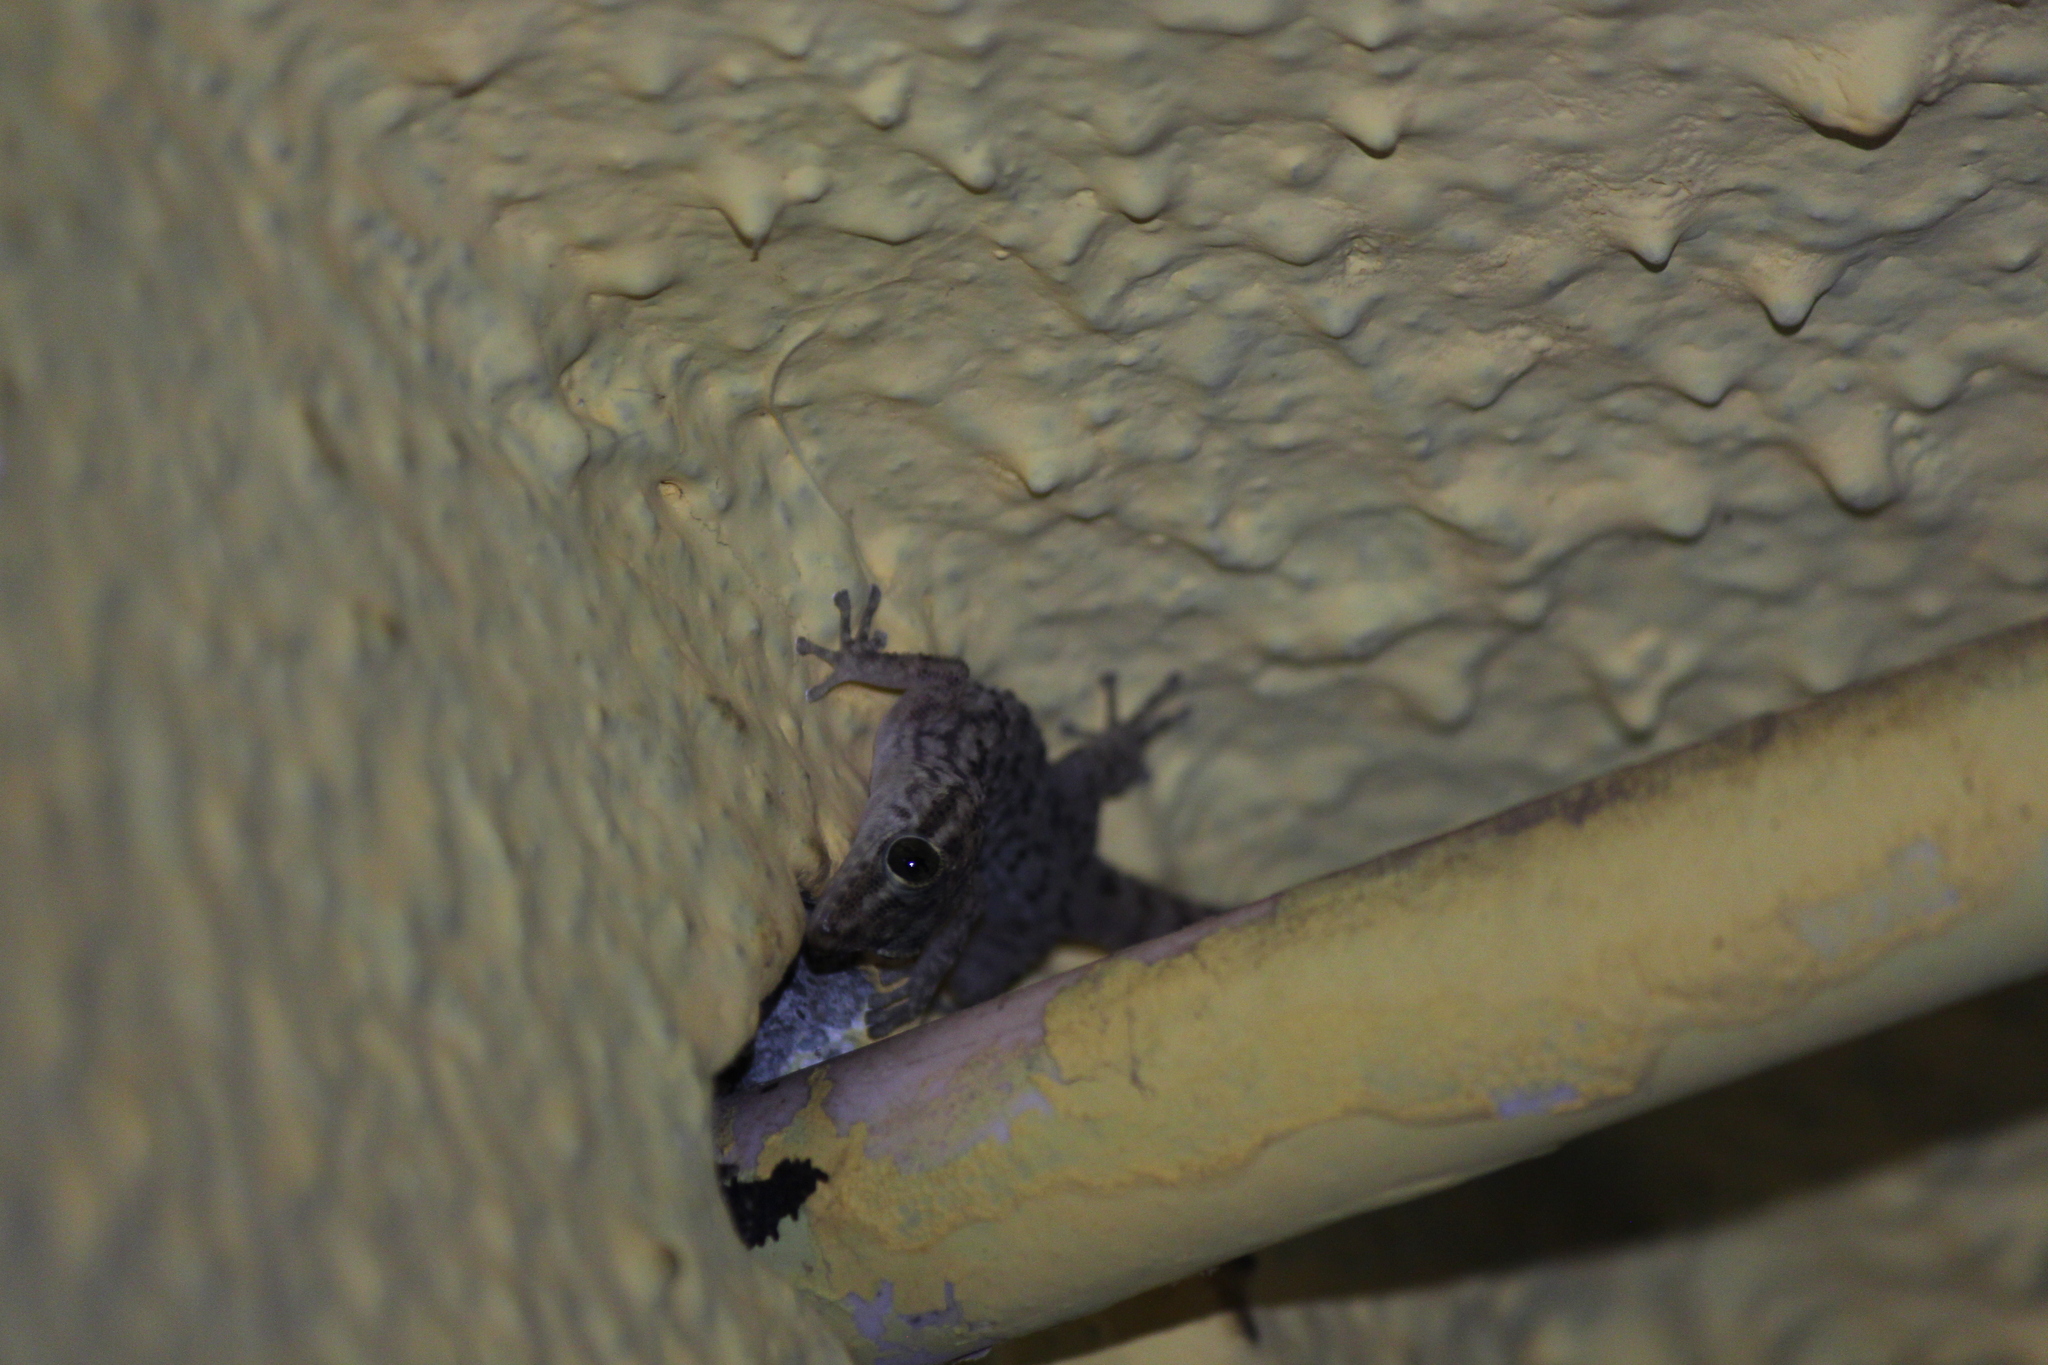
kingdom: Animalia
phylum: Chordata
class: Squamata
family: Phyllodactylidae
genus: Phyllodactylus
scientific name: Phyllodactylus darwini
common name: Darwin's leaf-toed gecko
